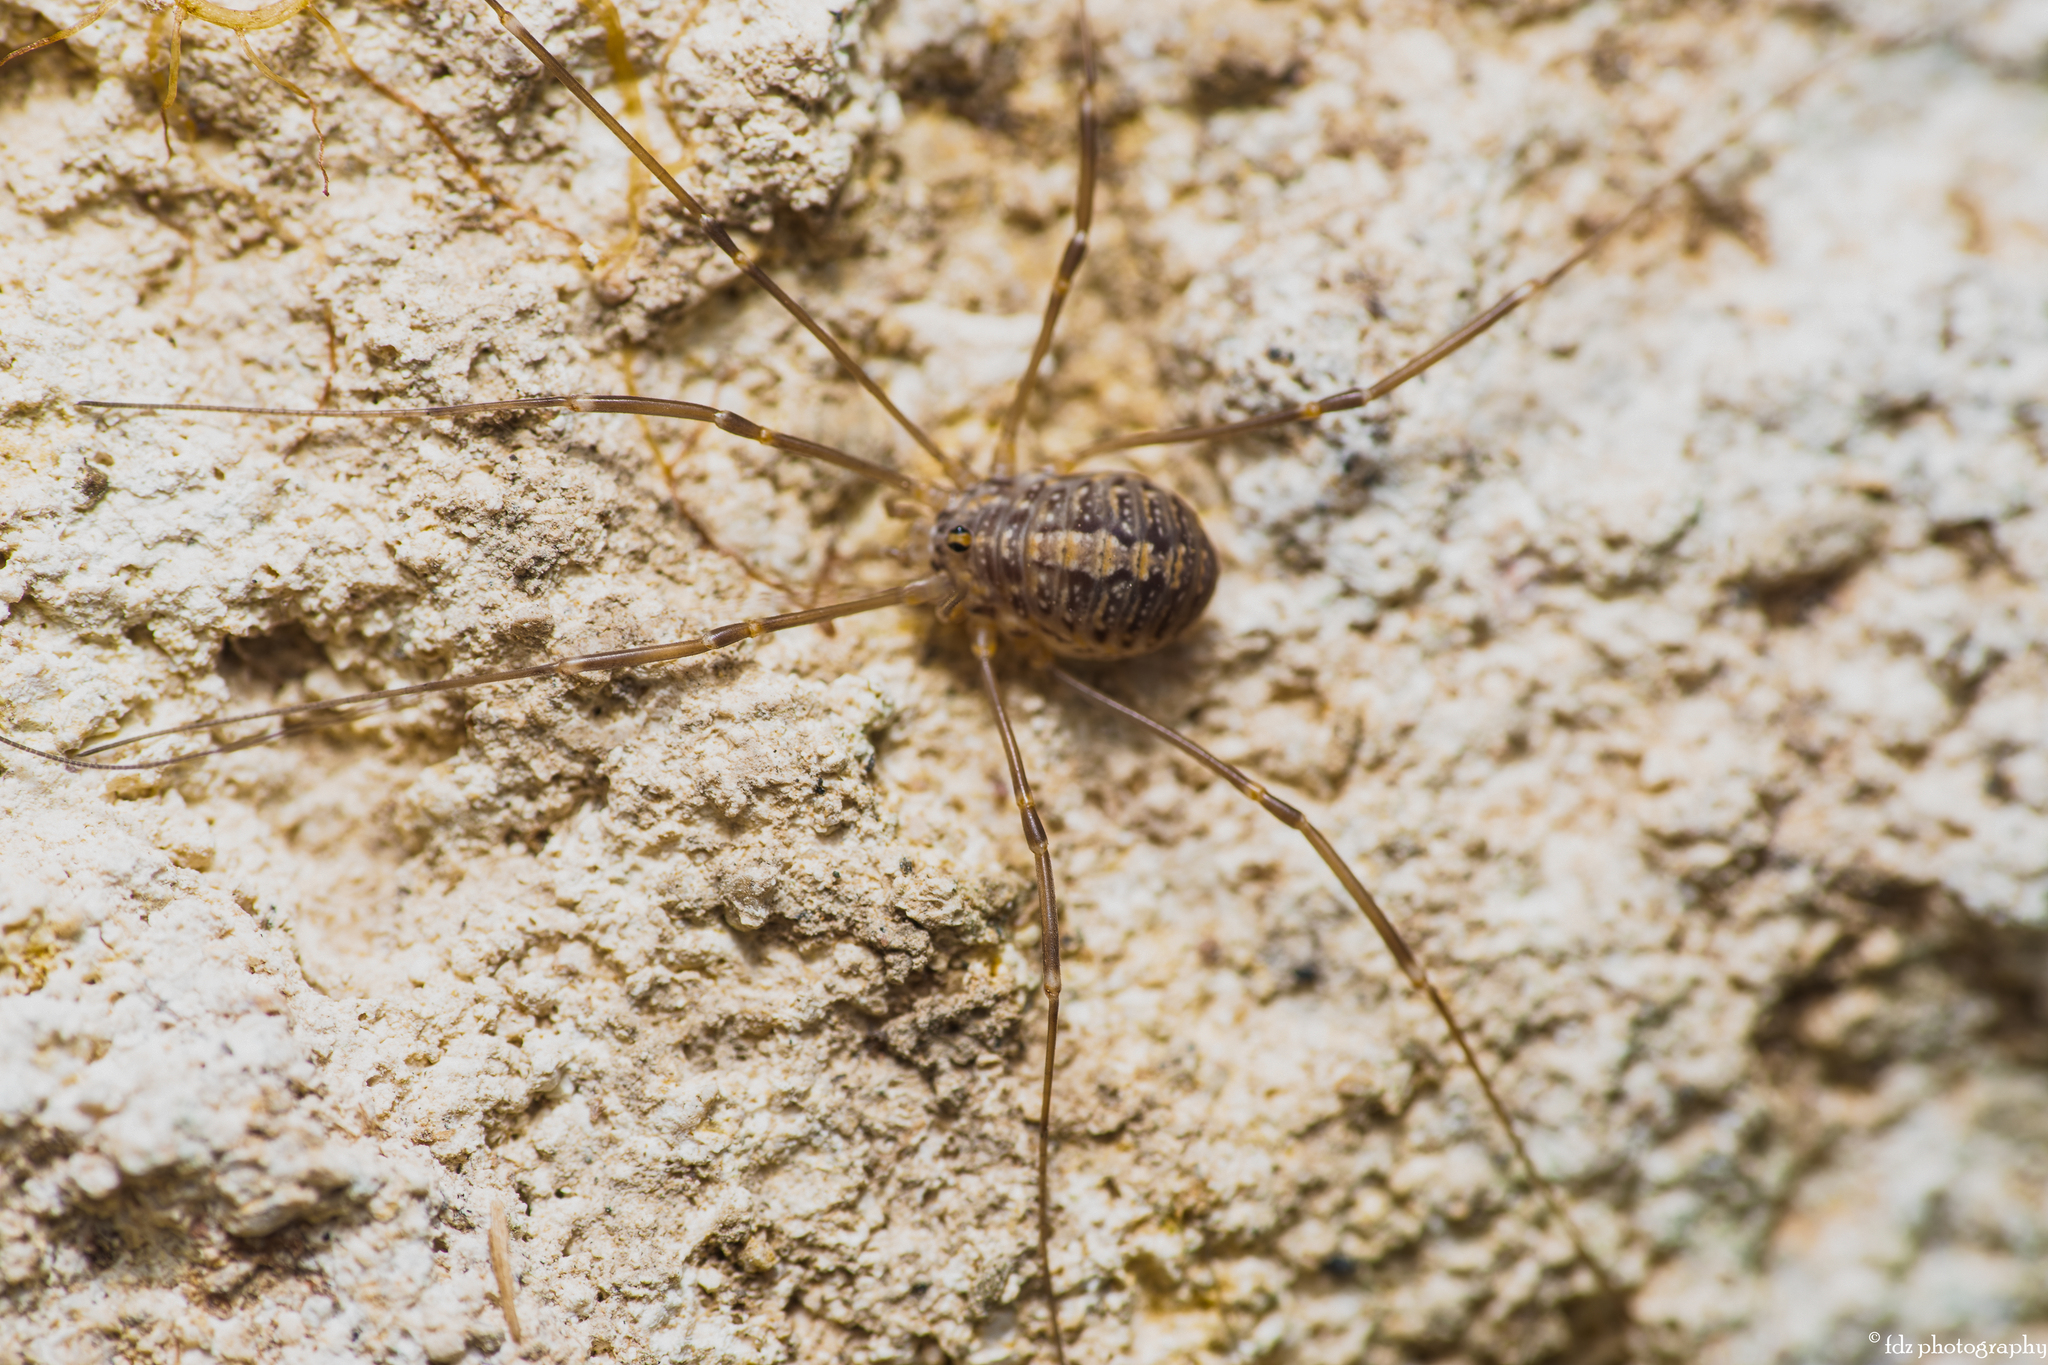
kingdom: Animalia
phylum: Arthropoda
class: Arachnida
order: Opiliones
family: Sclerosomatidae
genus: Cosmobunus
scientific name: Cosmobunus granarius
